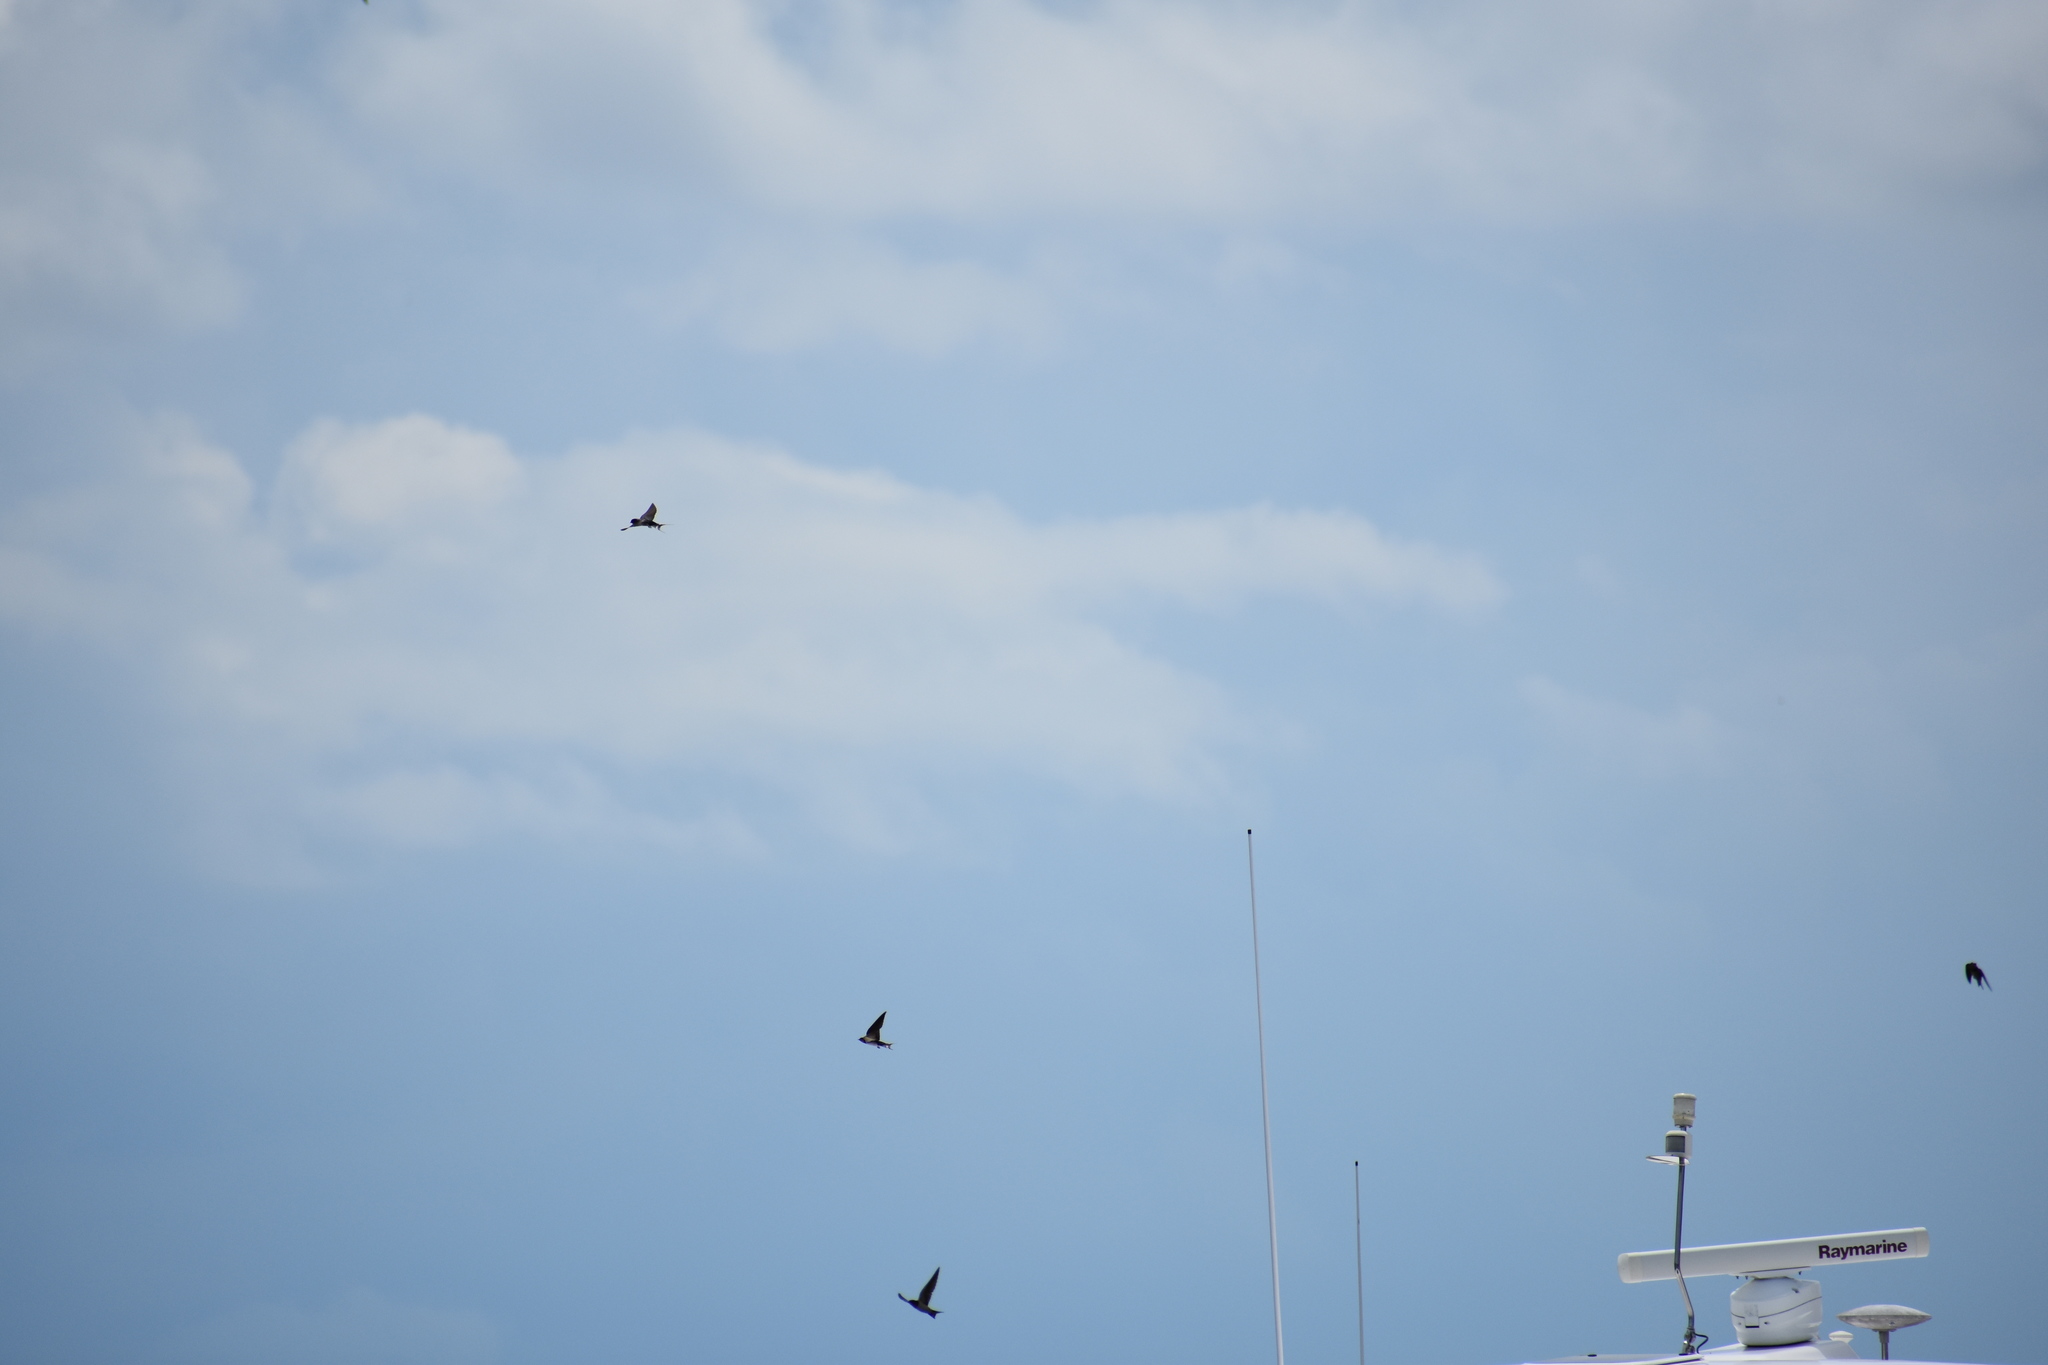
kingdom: Animalia
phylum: Chordata
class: Aves
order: Passeriformes
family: Hirundinidae
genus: Hirundo
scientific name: Hirundo rustica
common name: Barn swallow
